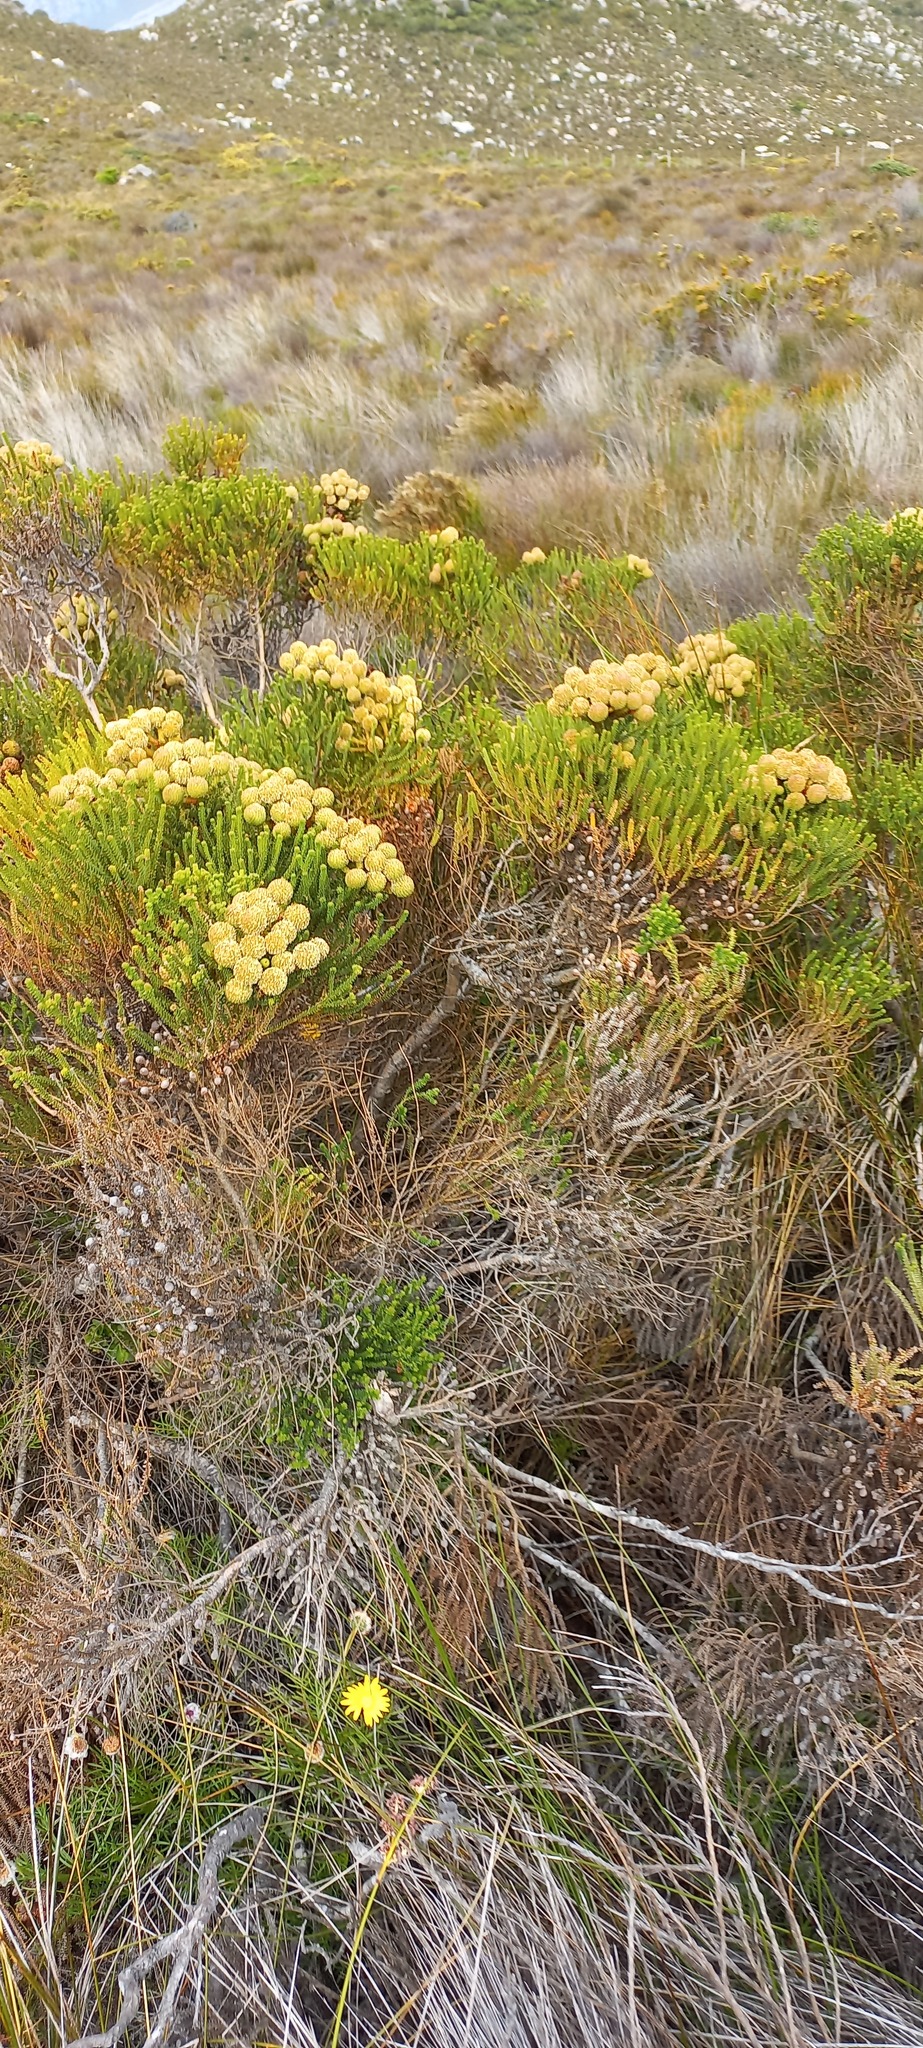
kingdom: Plantae
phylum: Tracheophyta
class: Magnoliopsida
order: Bruniales
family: Bruniaceae
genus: Brunia
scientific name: Brunia paleacea
